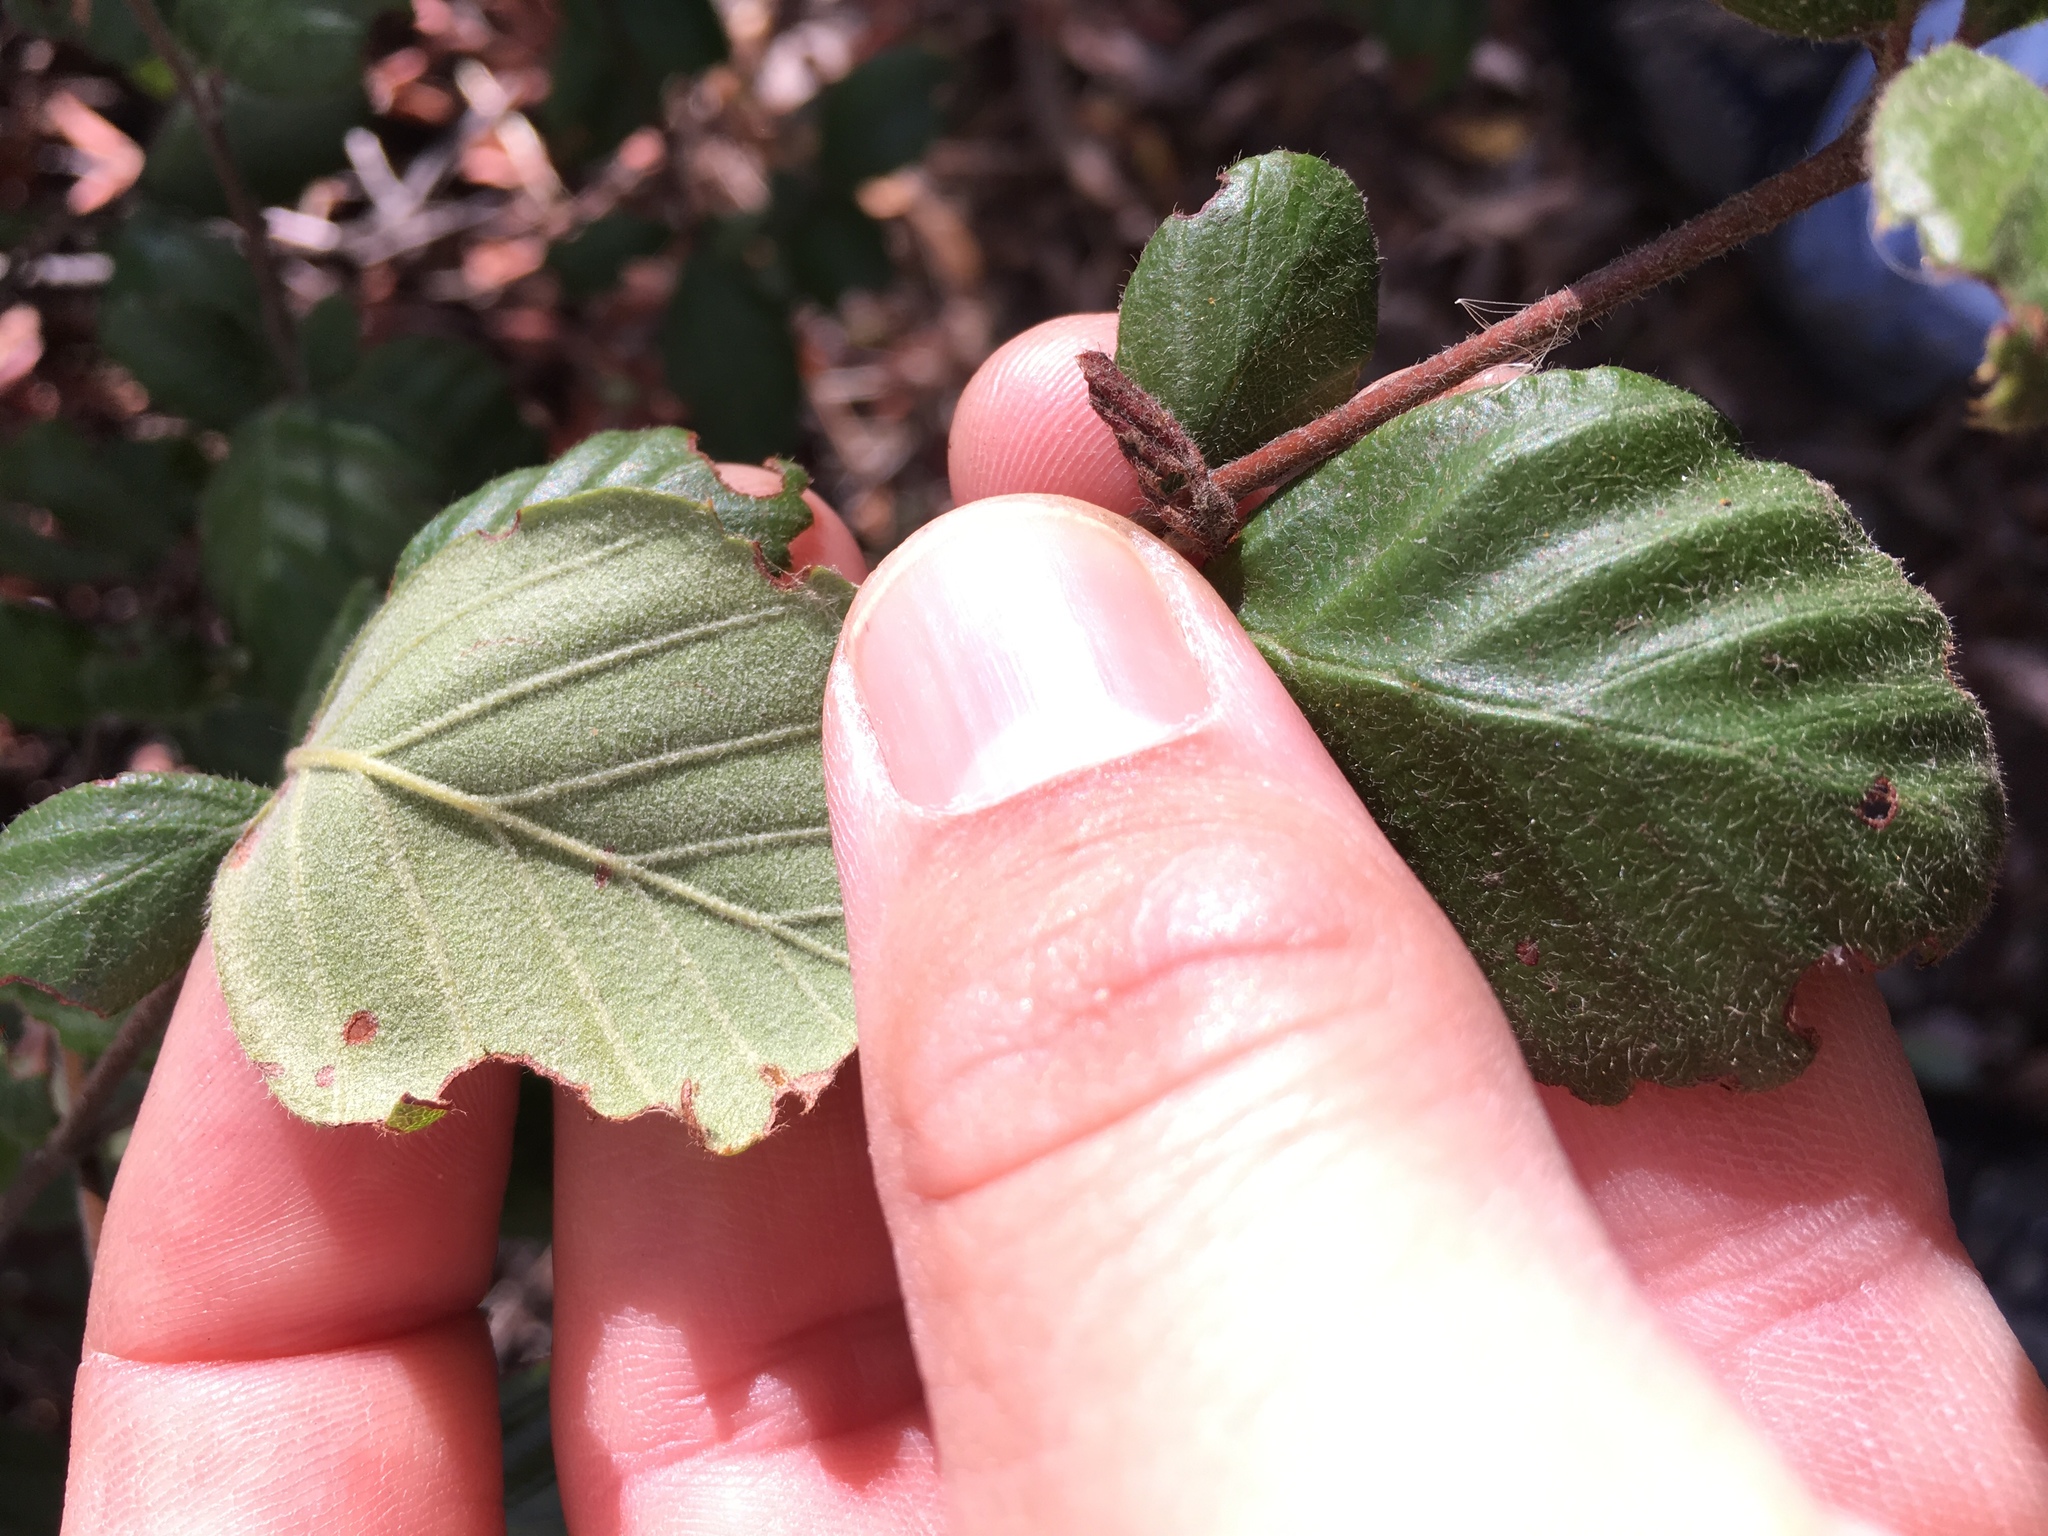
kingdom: Plantae
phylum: Tracheophyta
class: Magnoliopsida
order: Rosales
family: Rosaceae
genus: Cercocarpus
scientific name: Cercocarpus betuloides
